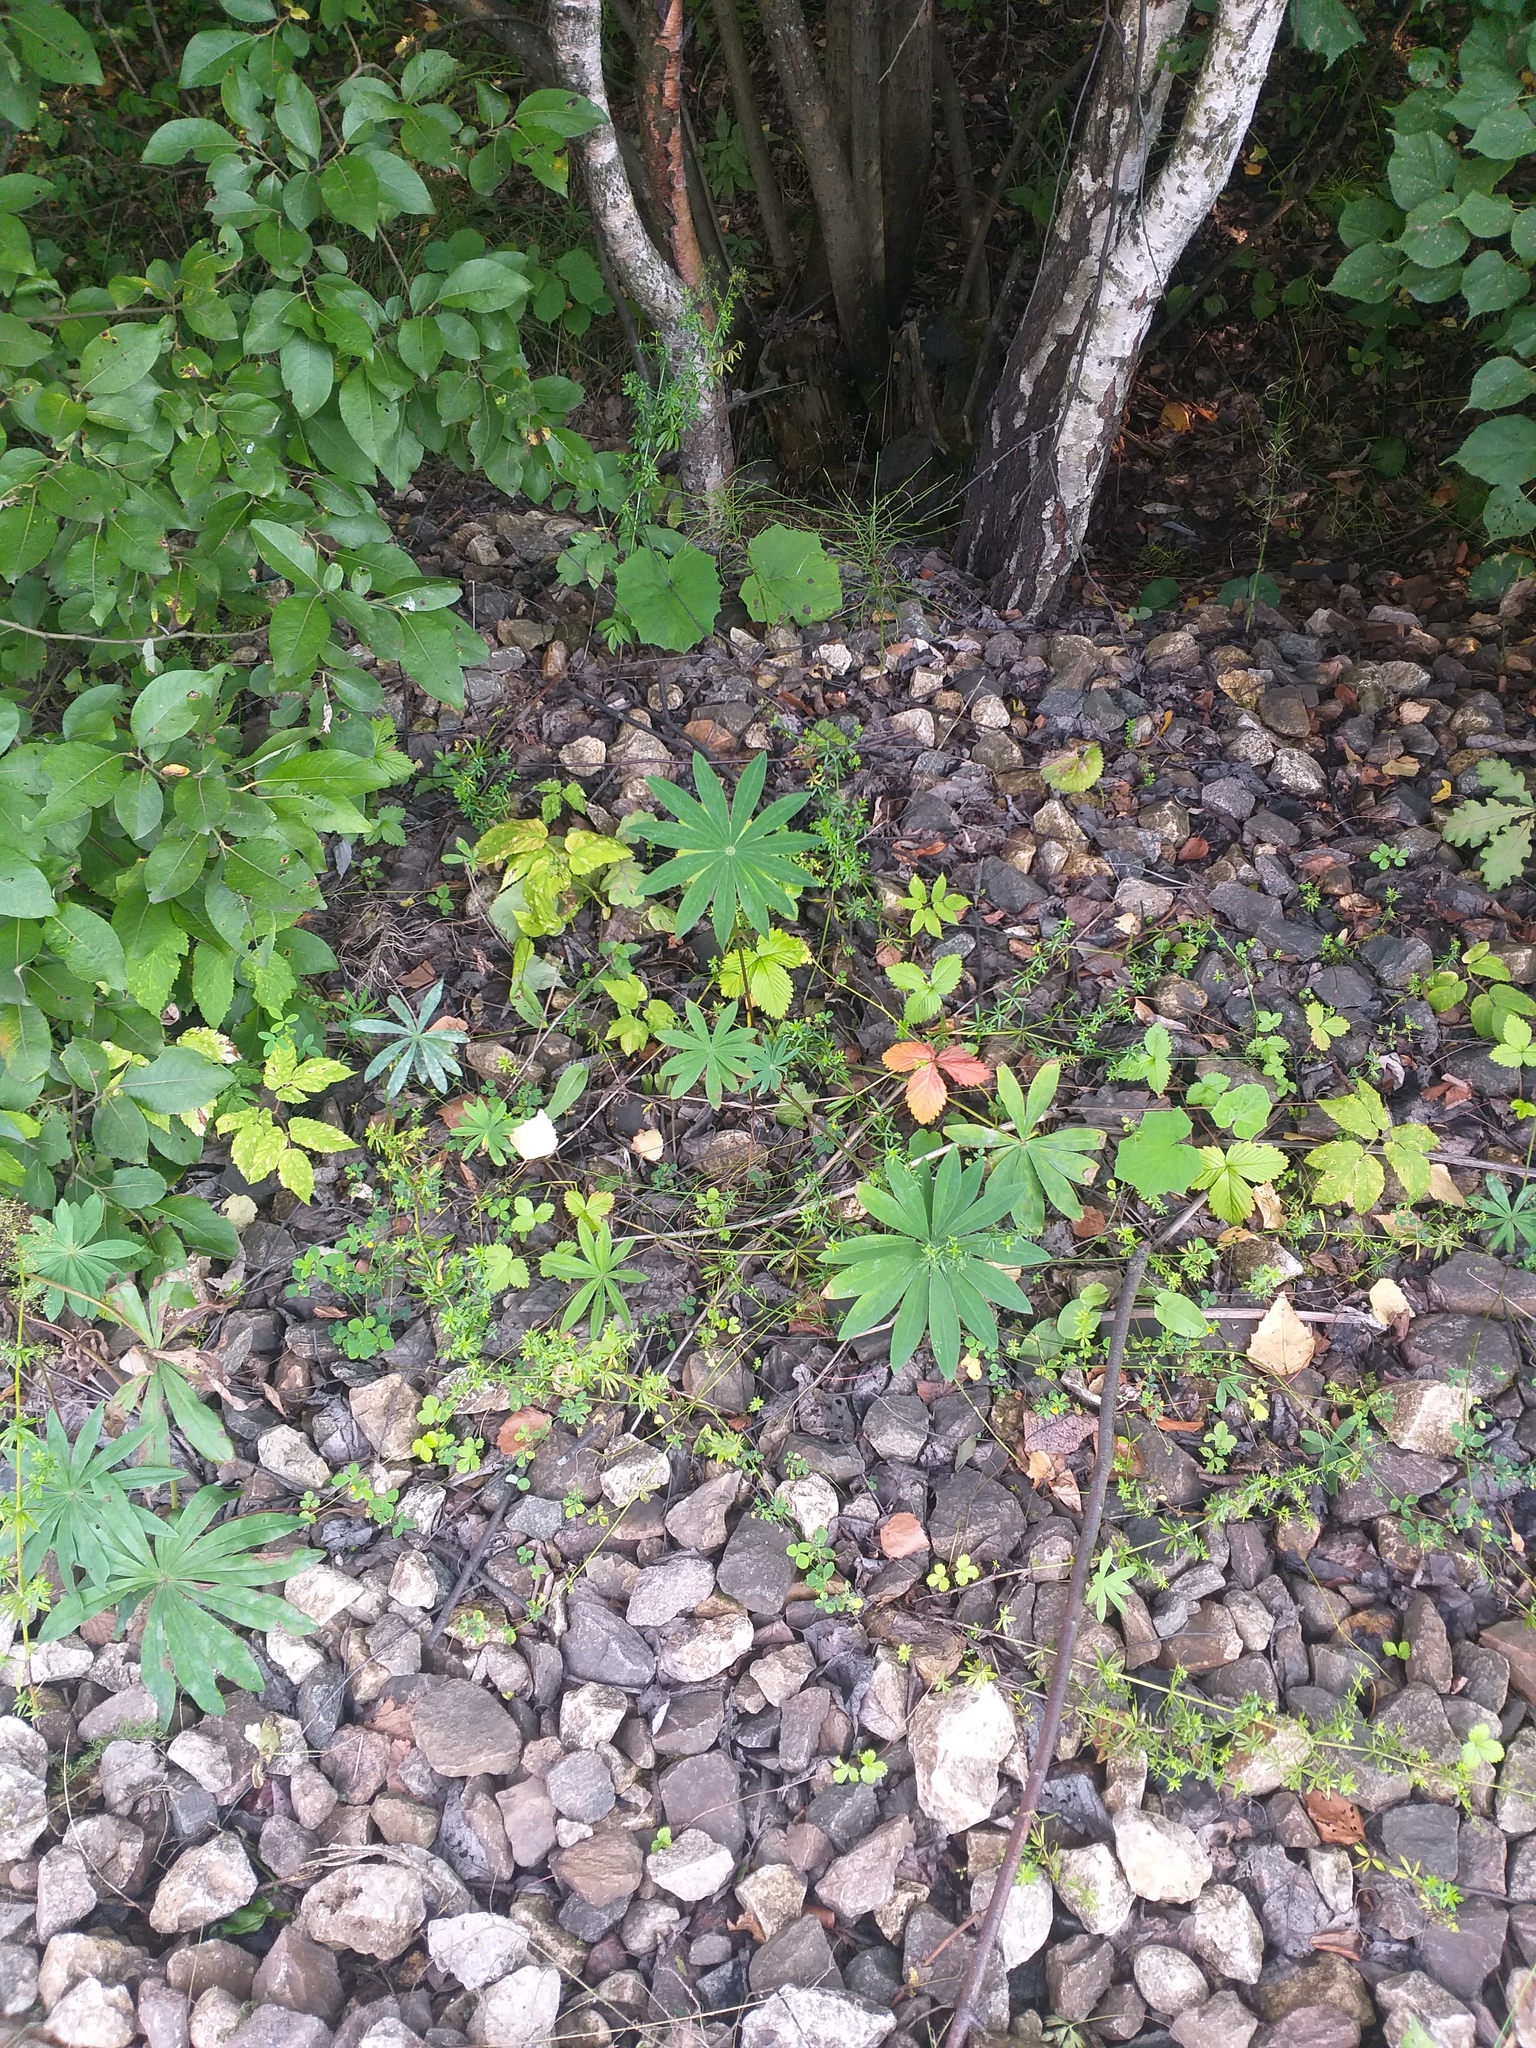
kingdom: Plantae
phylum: Tracheophyta
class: Magnoliopsida
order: Fabales
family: Fabaceae
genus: Lupinus
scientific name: Lupinus polyphyllus
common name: Garden lupin
